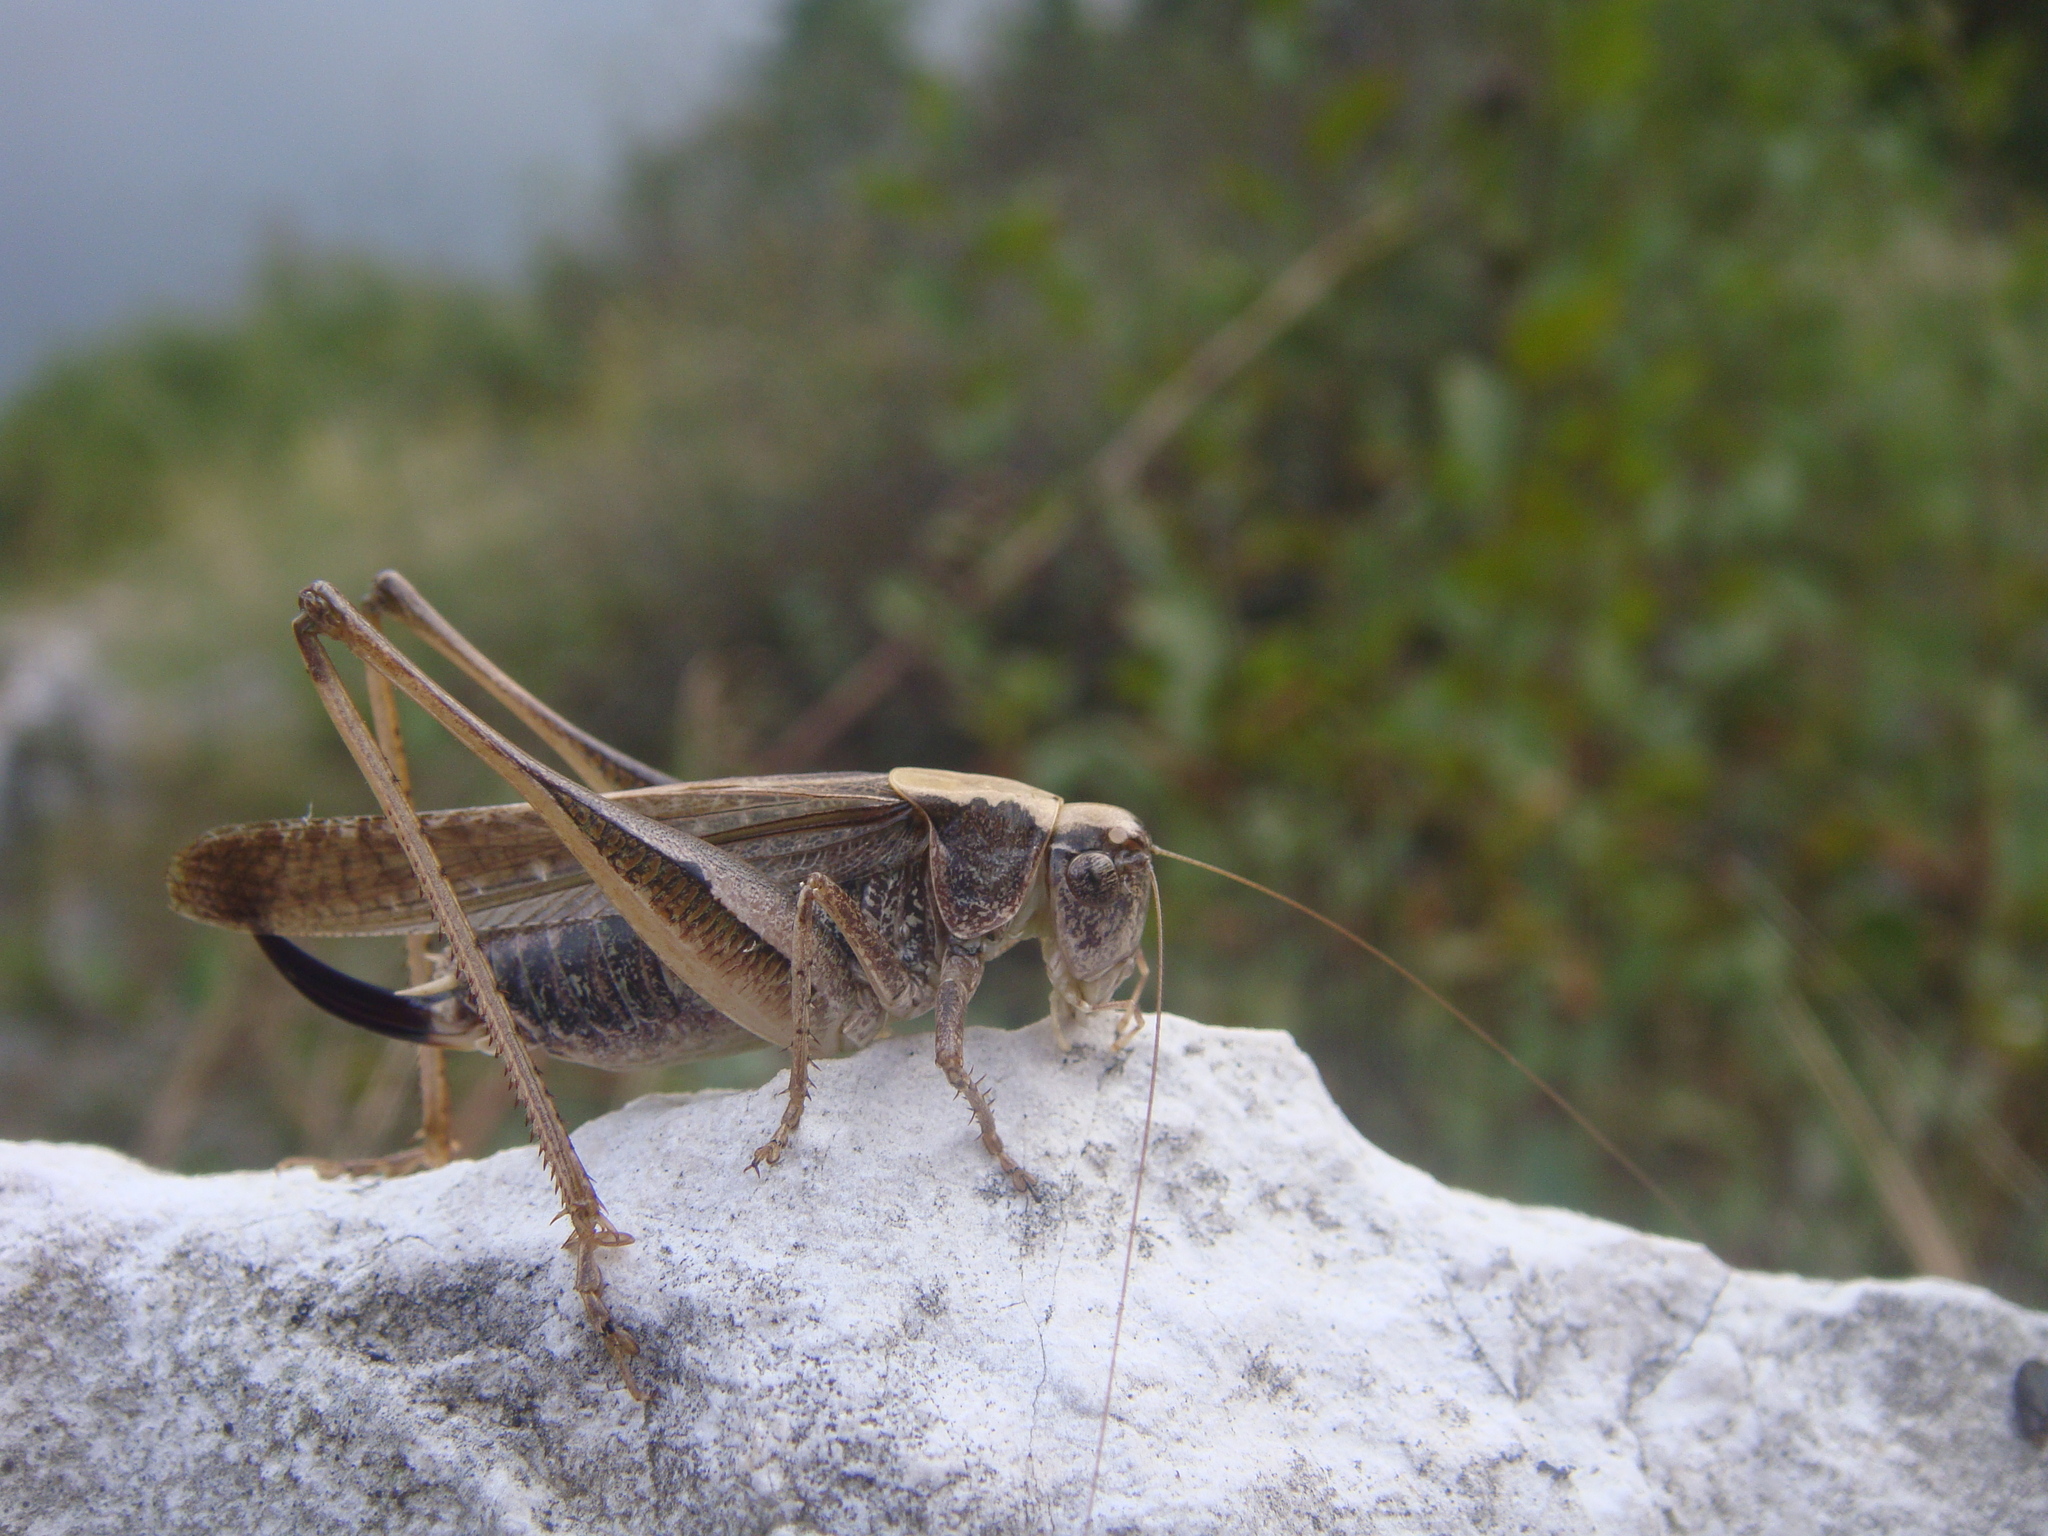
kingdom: Animalia
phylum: Arthropoda
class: Insecta
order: Orthoptera
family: Tettigoniidae
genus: Platycleis
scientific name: Platycleis grisea
